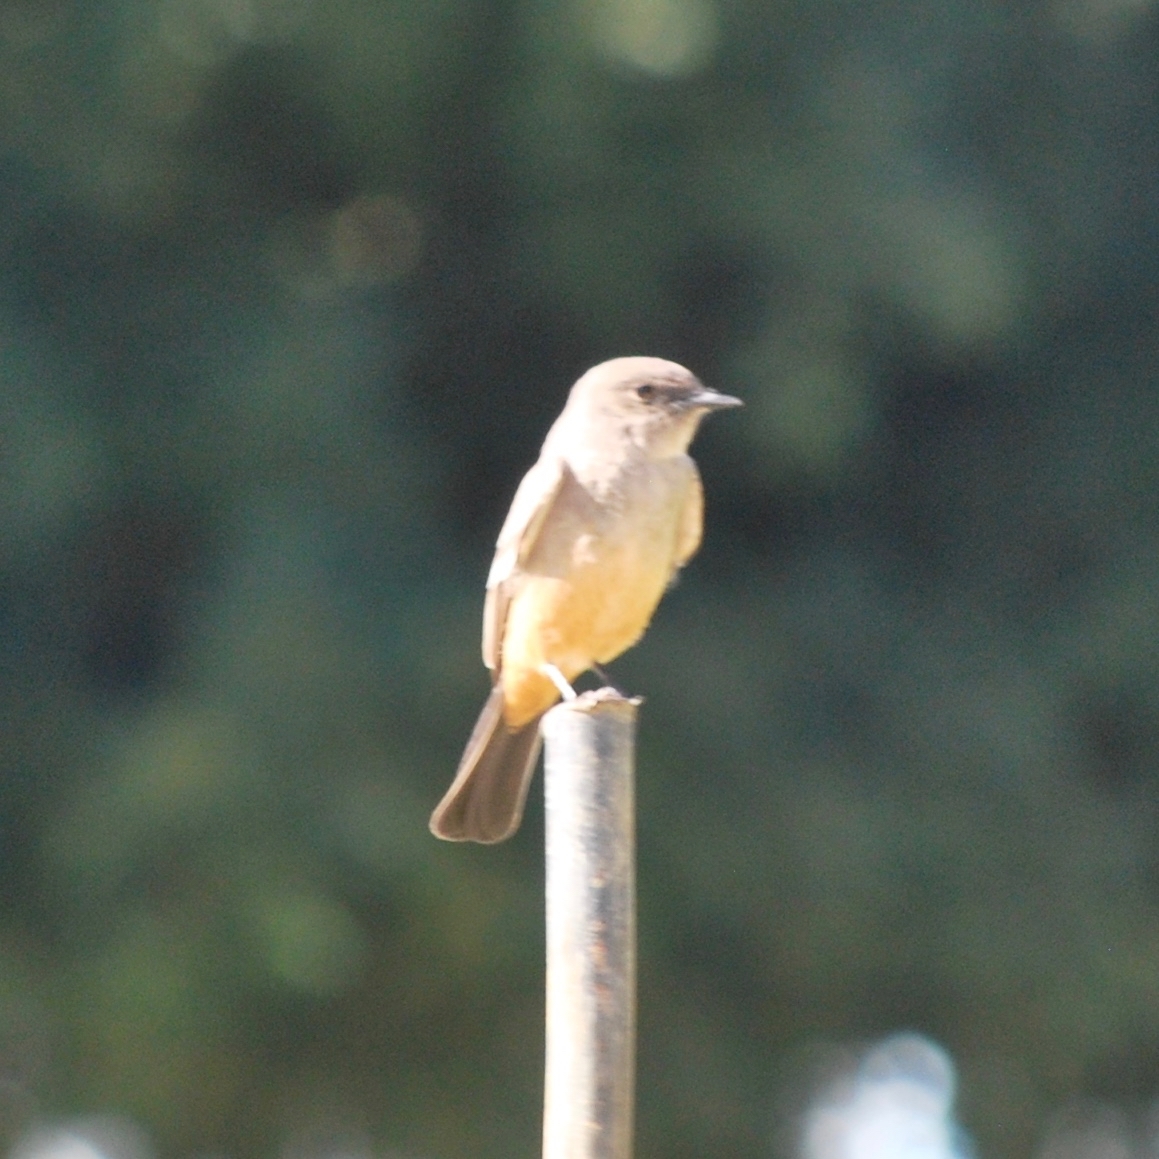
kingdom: Animalia
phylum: Chordata
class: Aves
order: Passeriformes
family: Tyrannidae
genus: Sayornis
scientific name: Sayornis saya
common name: Say's phoebe
